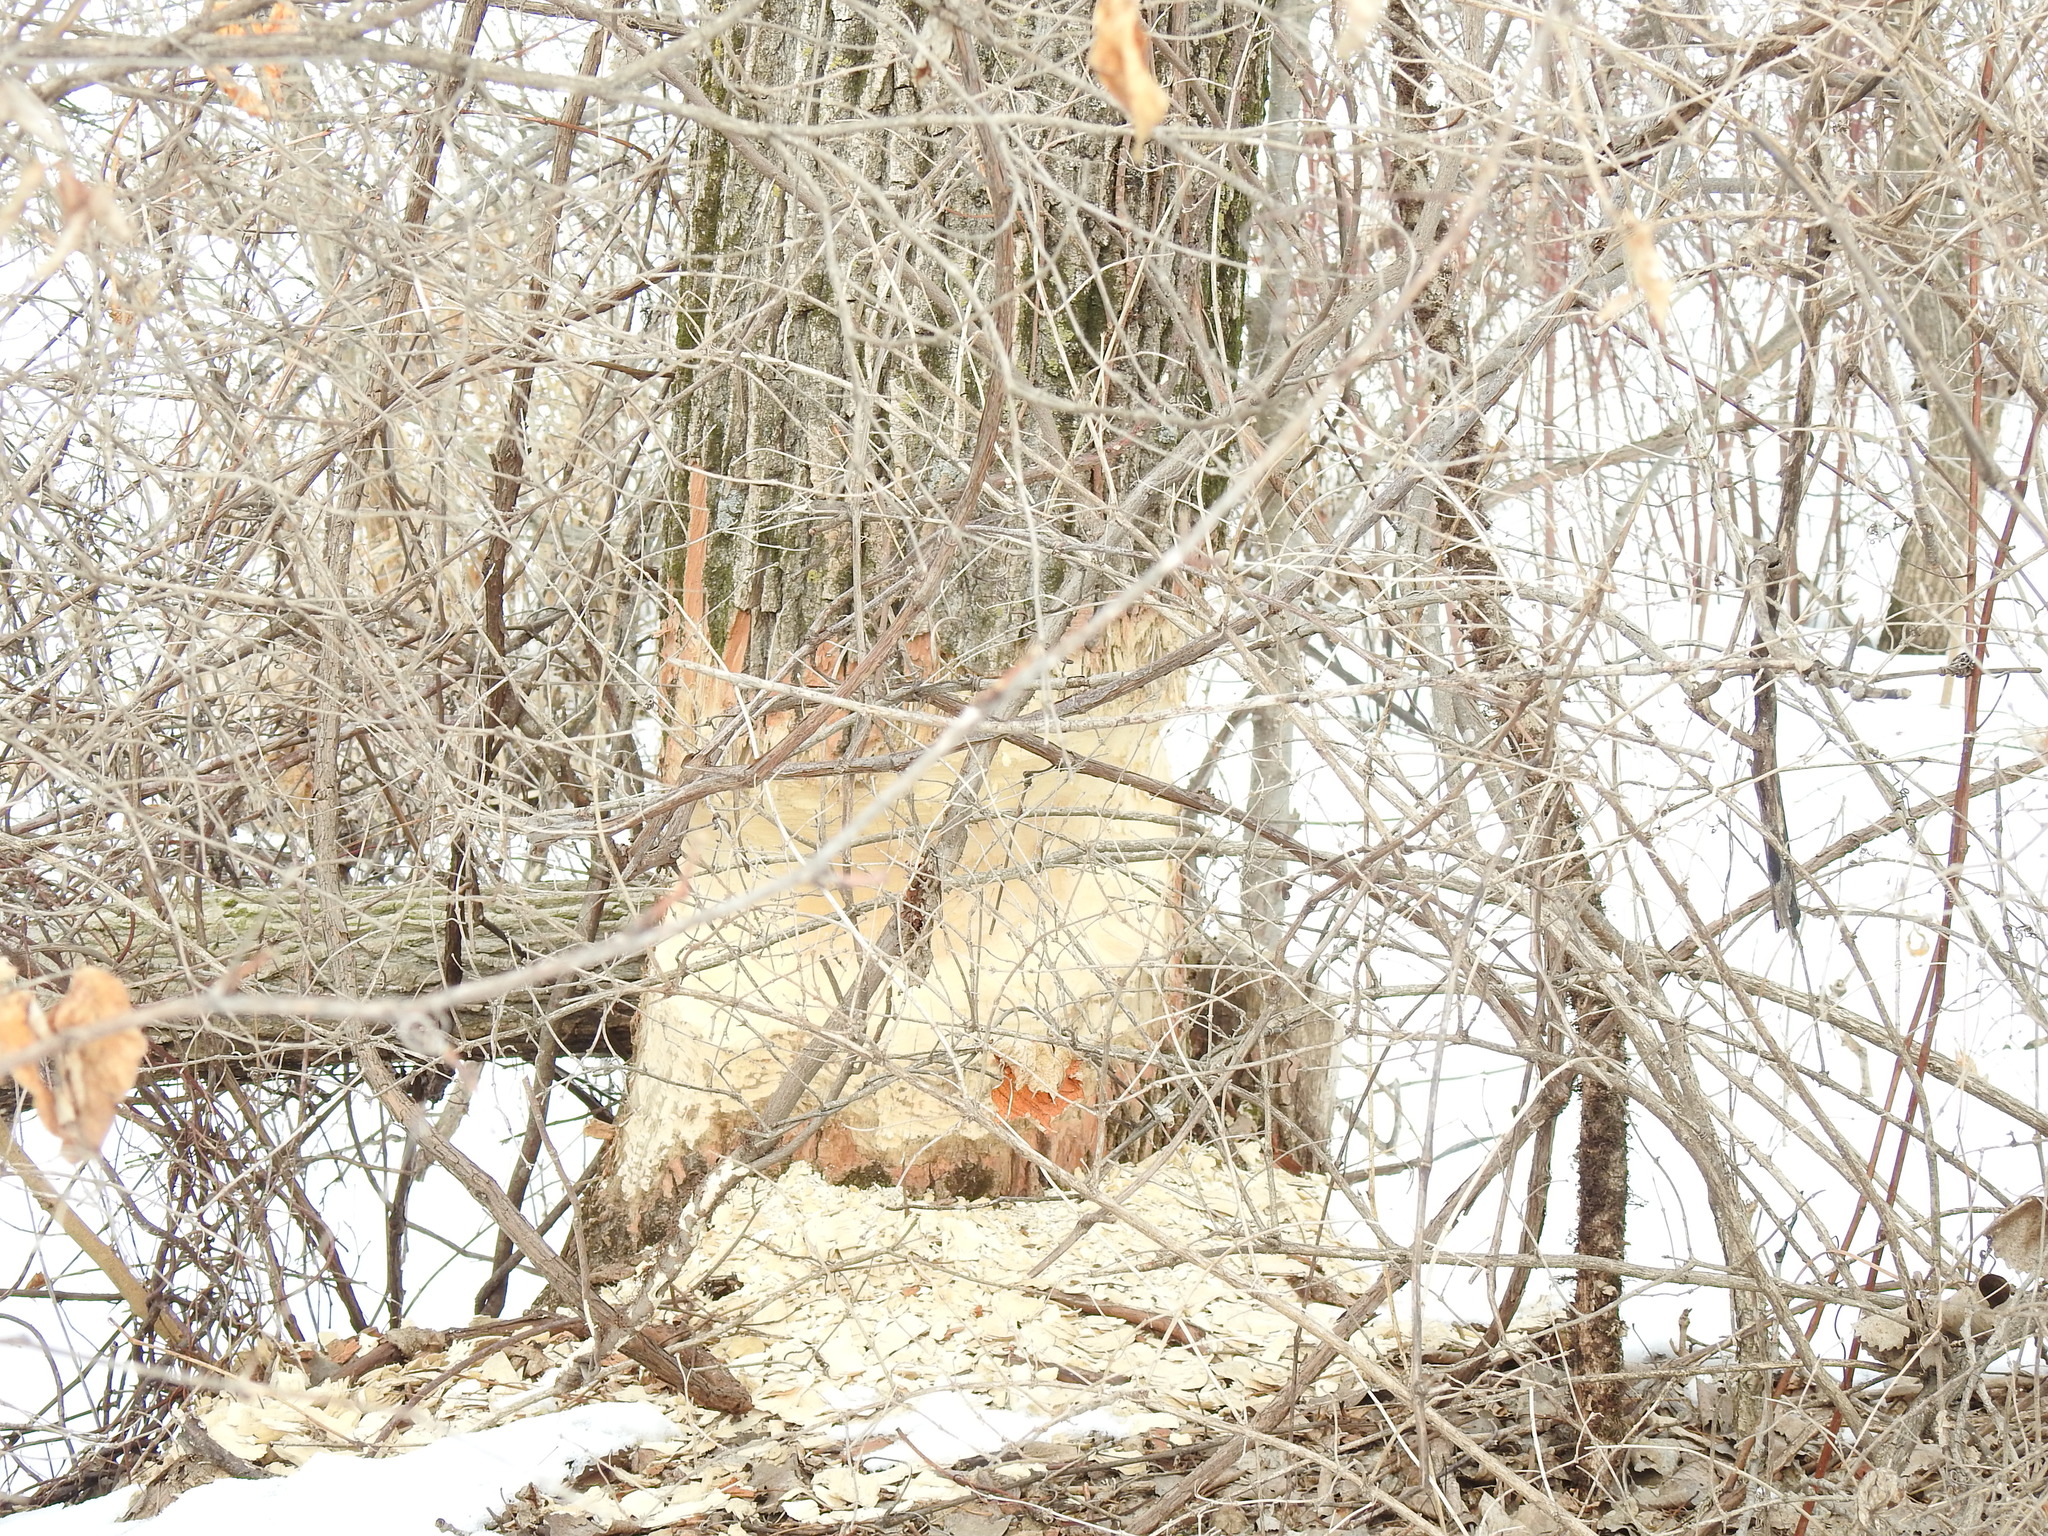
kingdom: Animalia
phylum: Chordata
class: Mammalia
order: Rodentia
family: Castoridae
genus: Castor
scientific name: Castor canadensis
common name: American beaver
